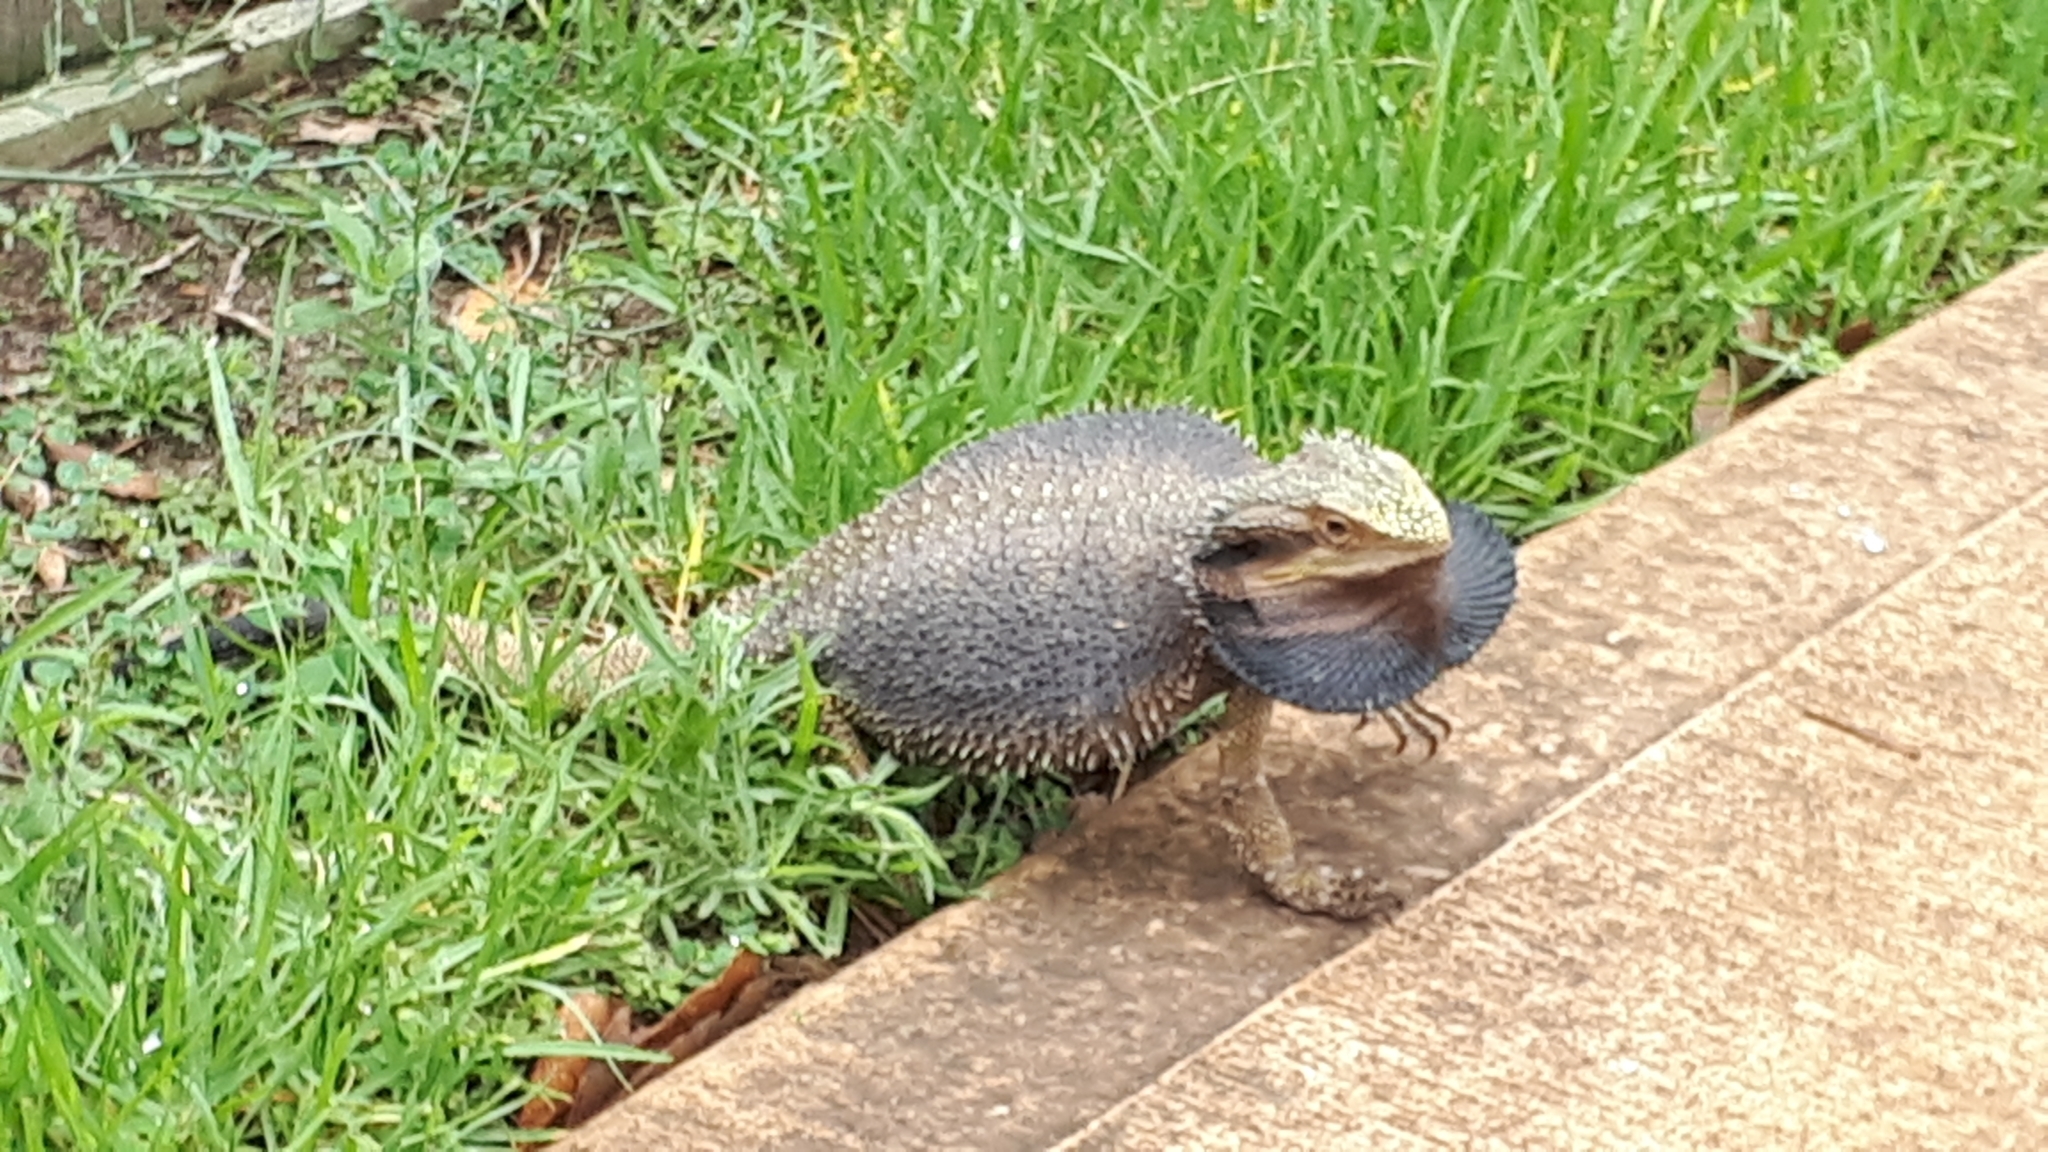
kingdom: Animalia
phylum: Chordata
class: Squamata
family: Agamidae
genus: Pogona
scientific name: Pogona barbata
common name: Bearded dragon
